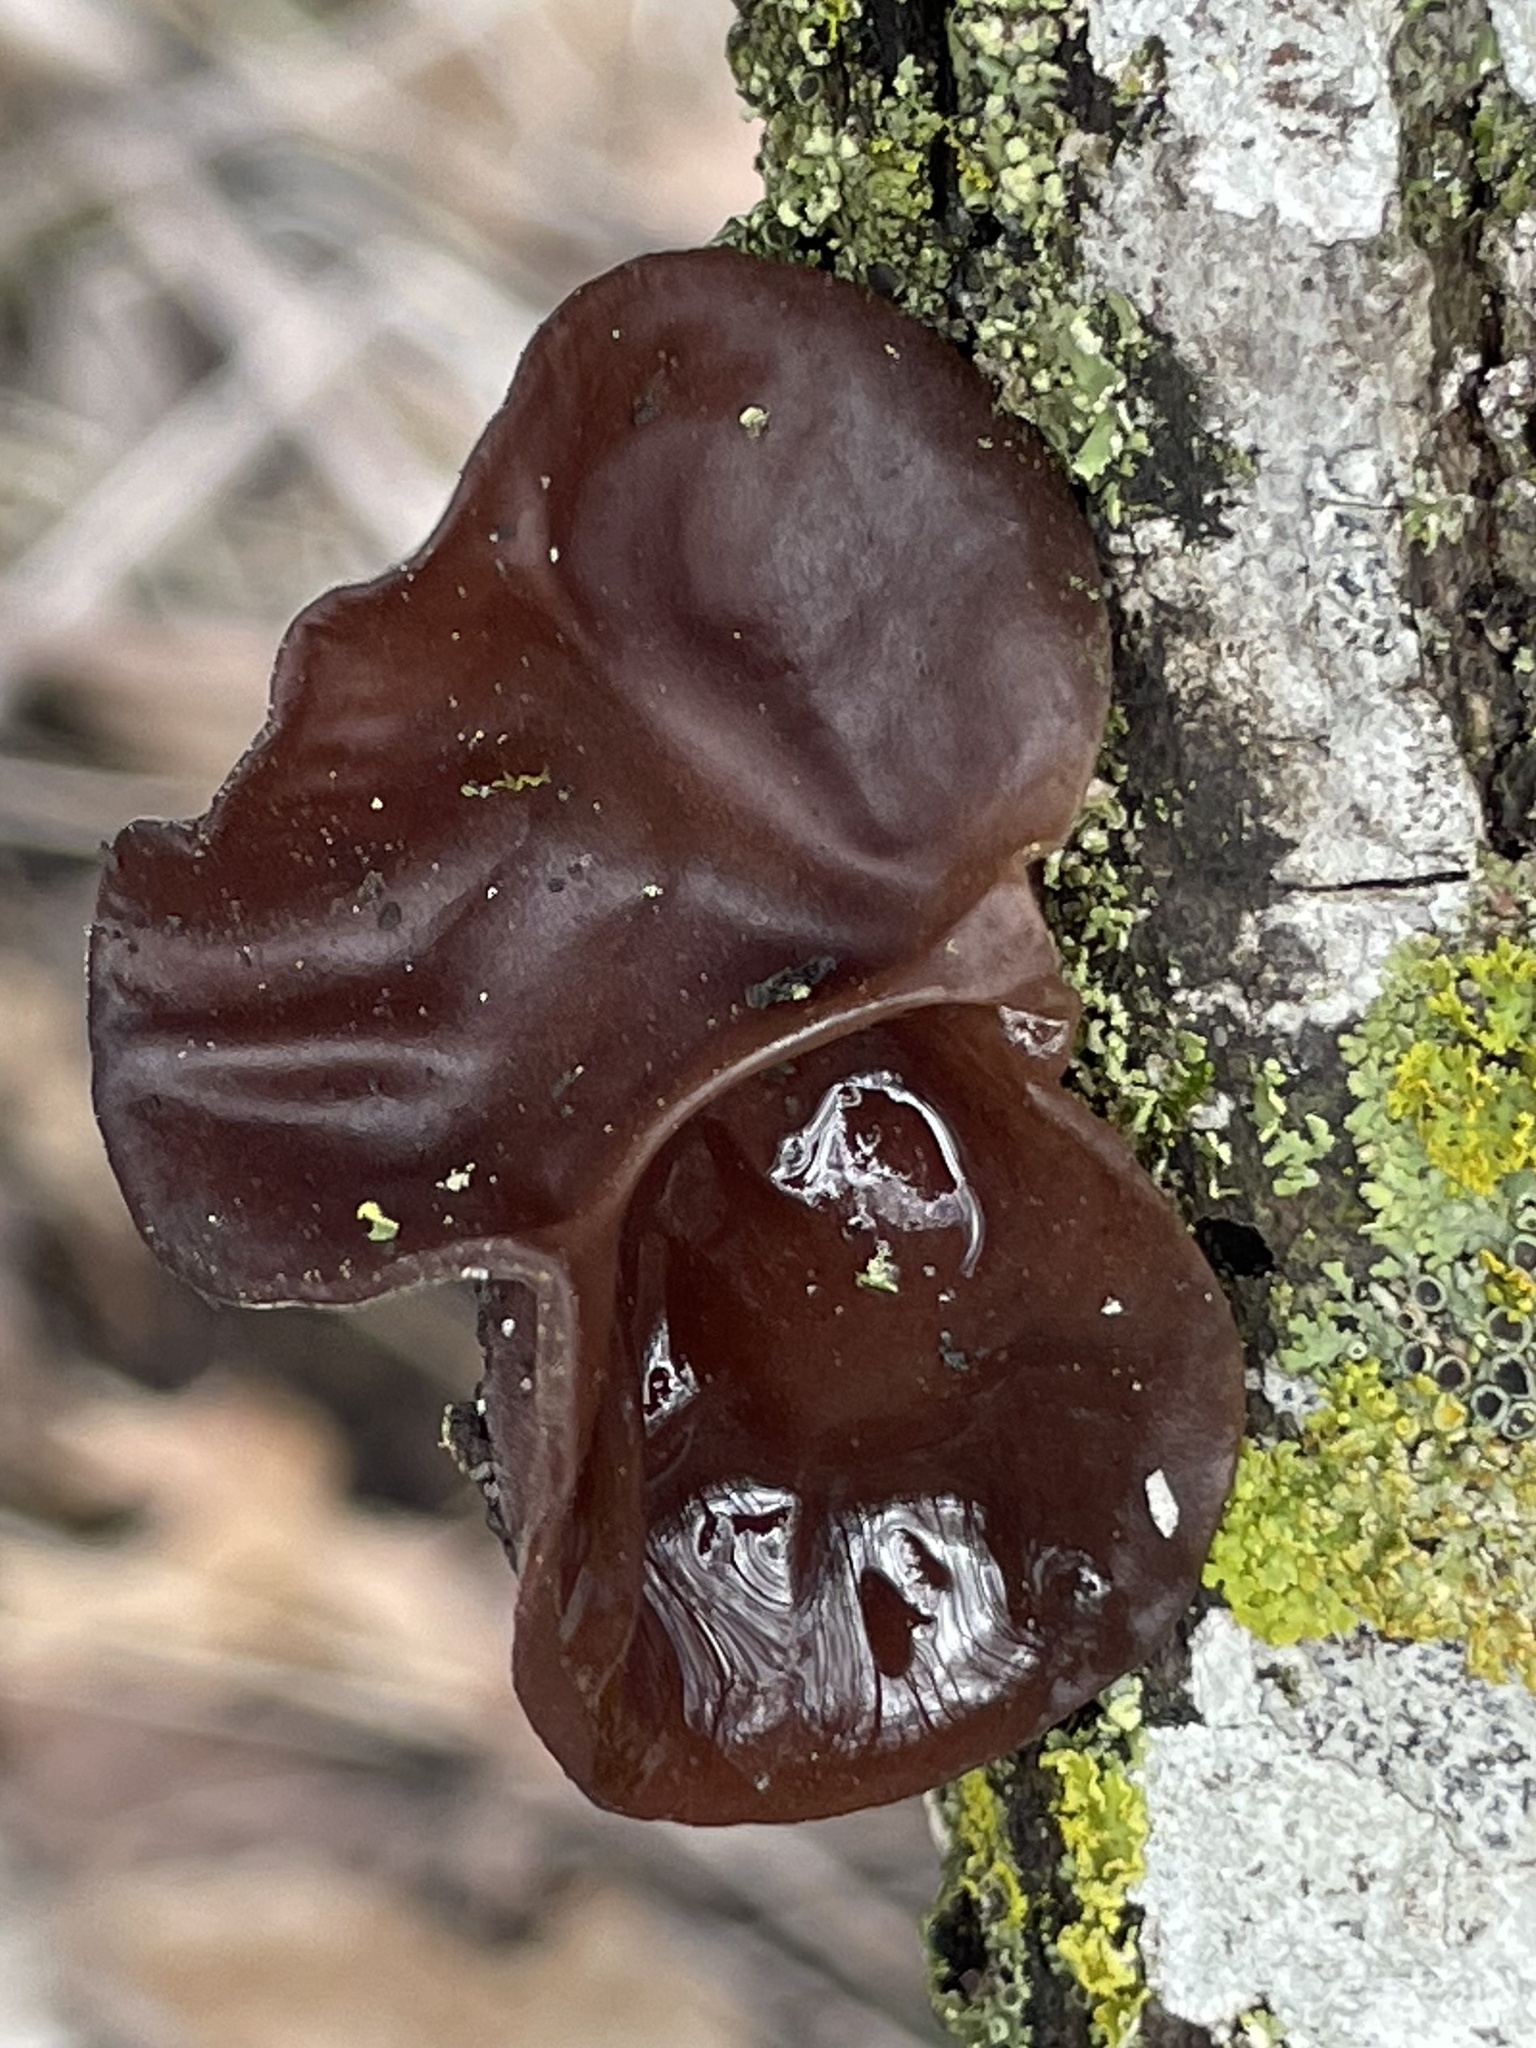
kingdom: Fungi
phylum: Basidiomycota
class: Agaricomycetes
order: Auriculariales
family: Auriculariaceae
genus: Auricularia
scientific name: Auricularia auricula-judae
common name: Jelly ear
